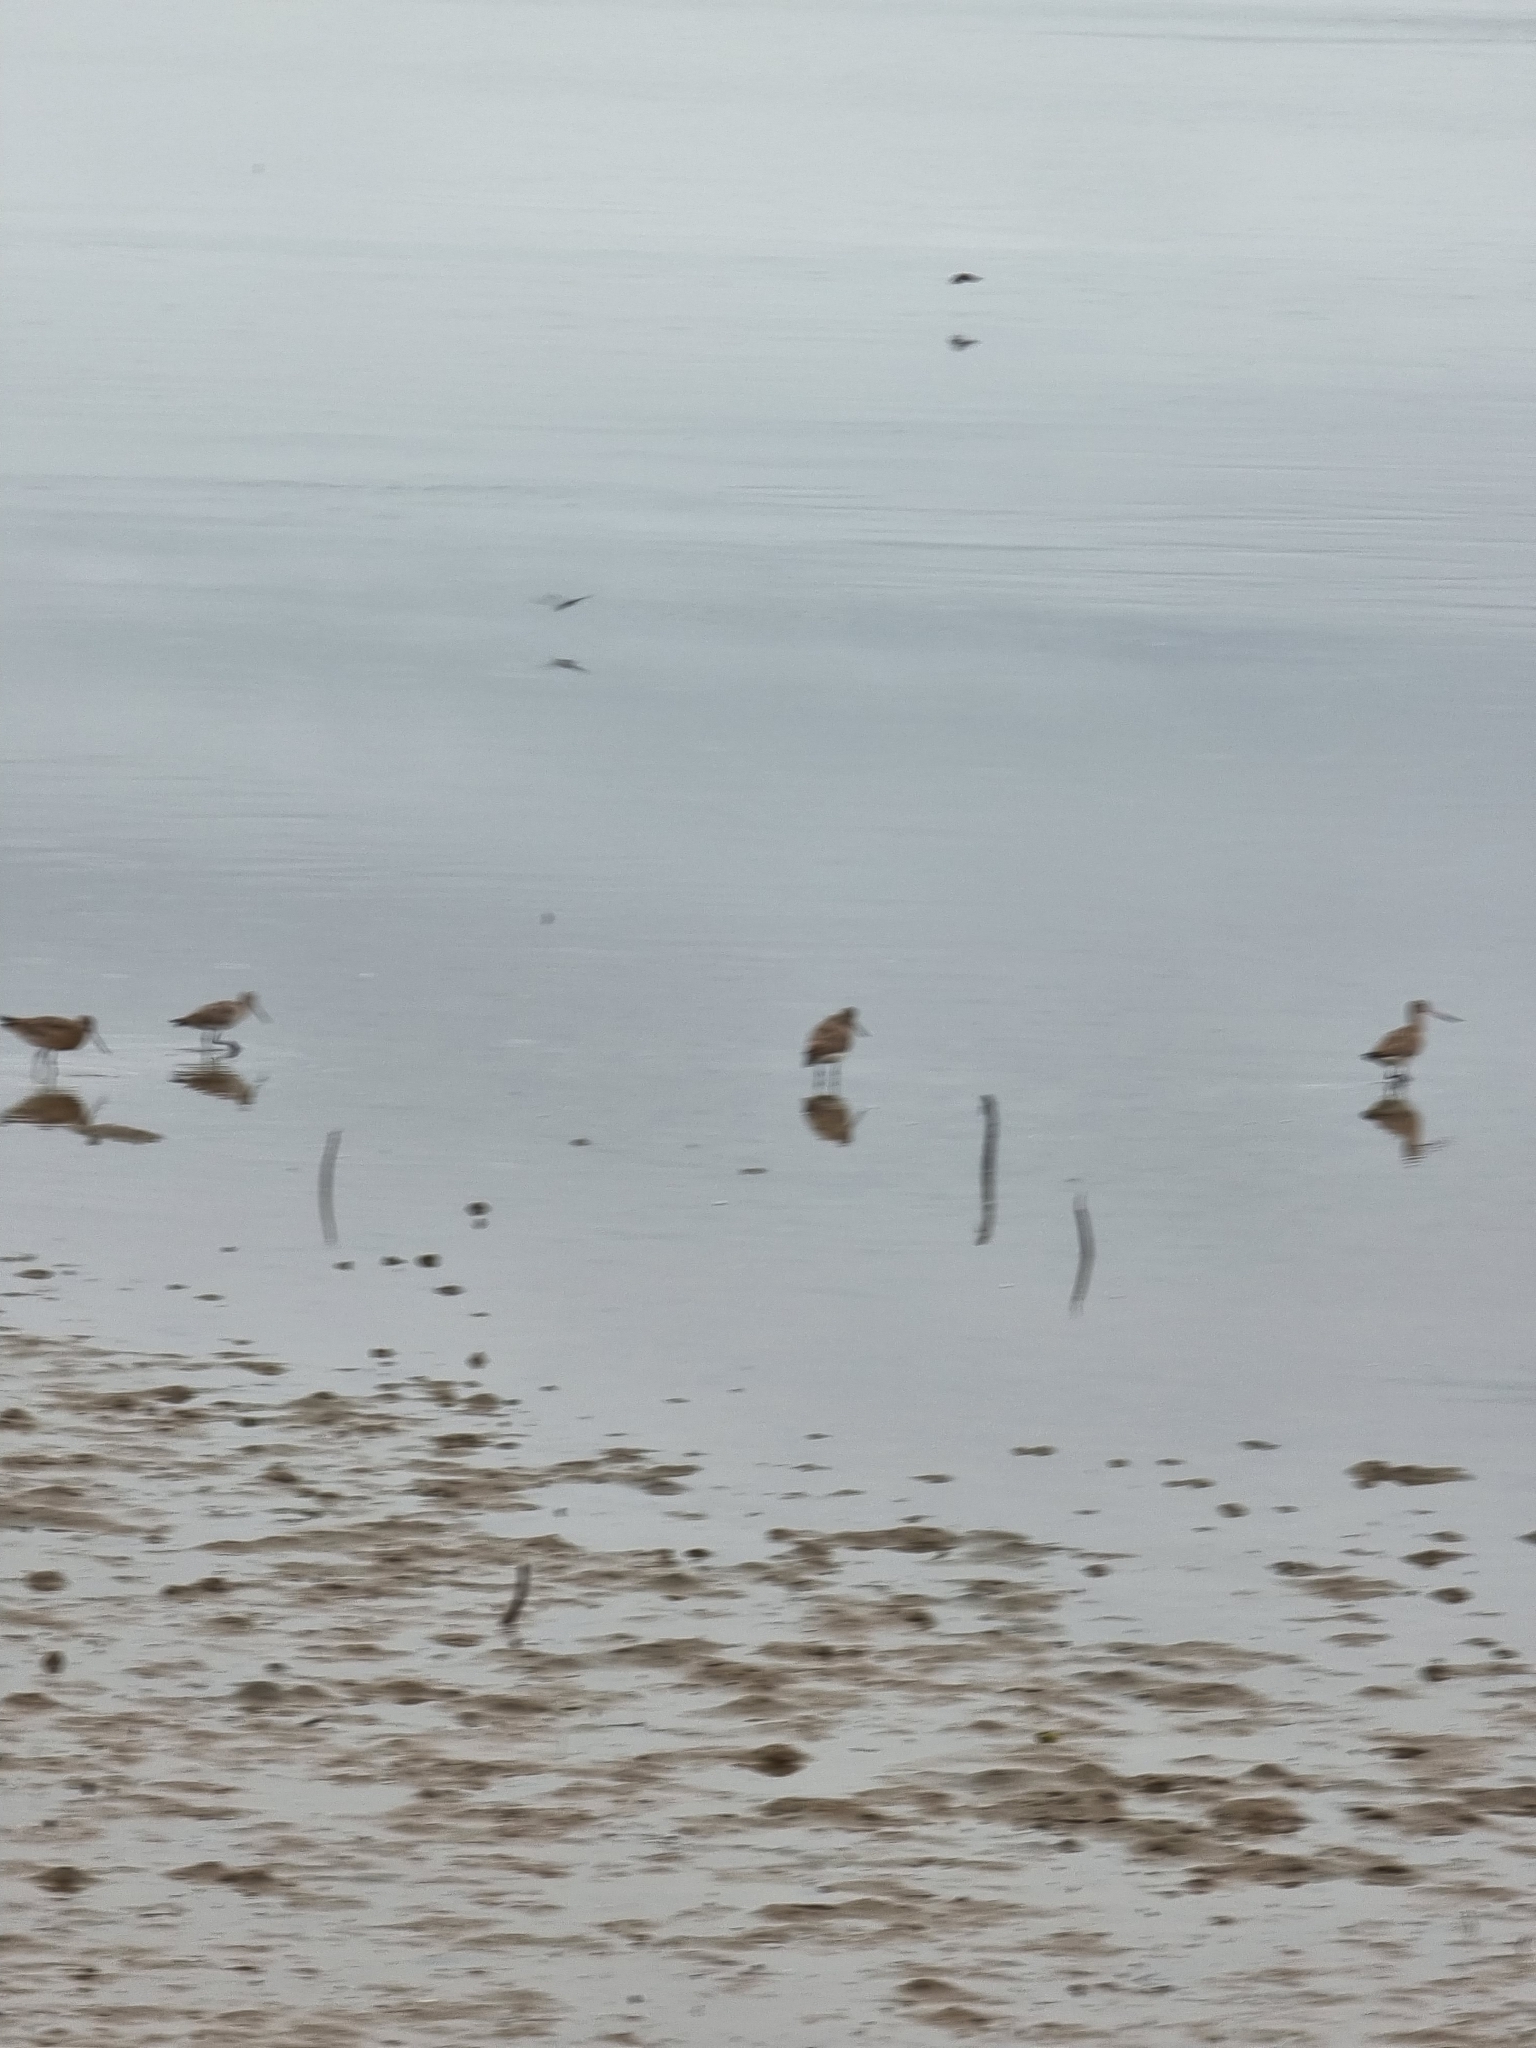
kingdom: Animalia
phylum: Chordata
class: Aves
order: Charadriiformes
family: Scolopacidae
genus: Limosa
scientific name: Limosa lapponica
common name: Bar-tailed godwit
